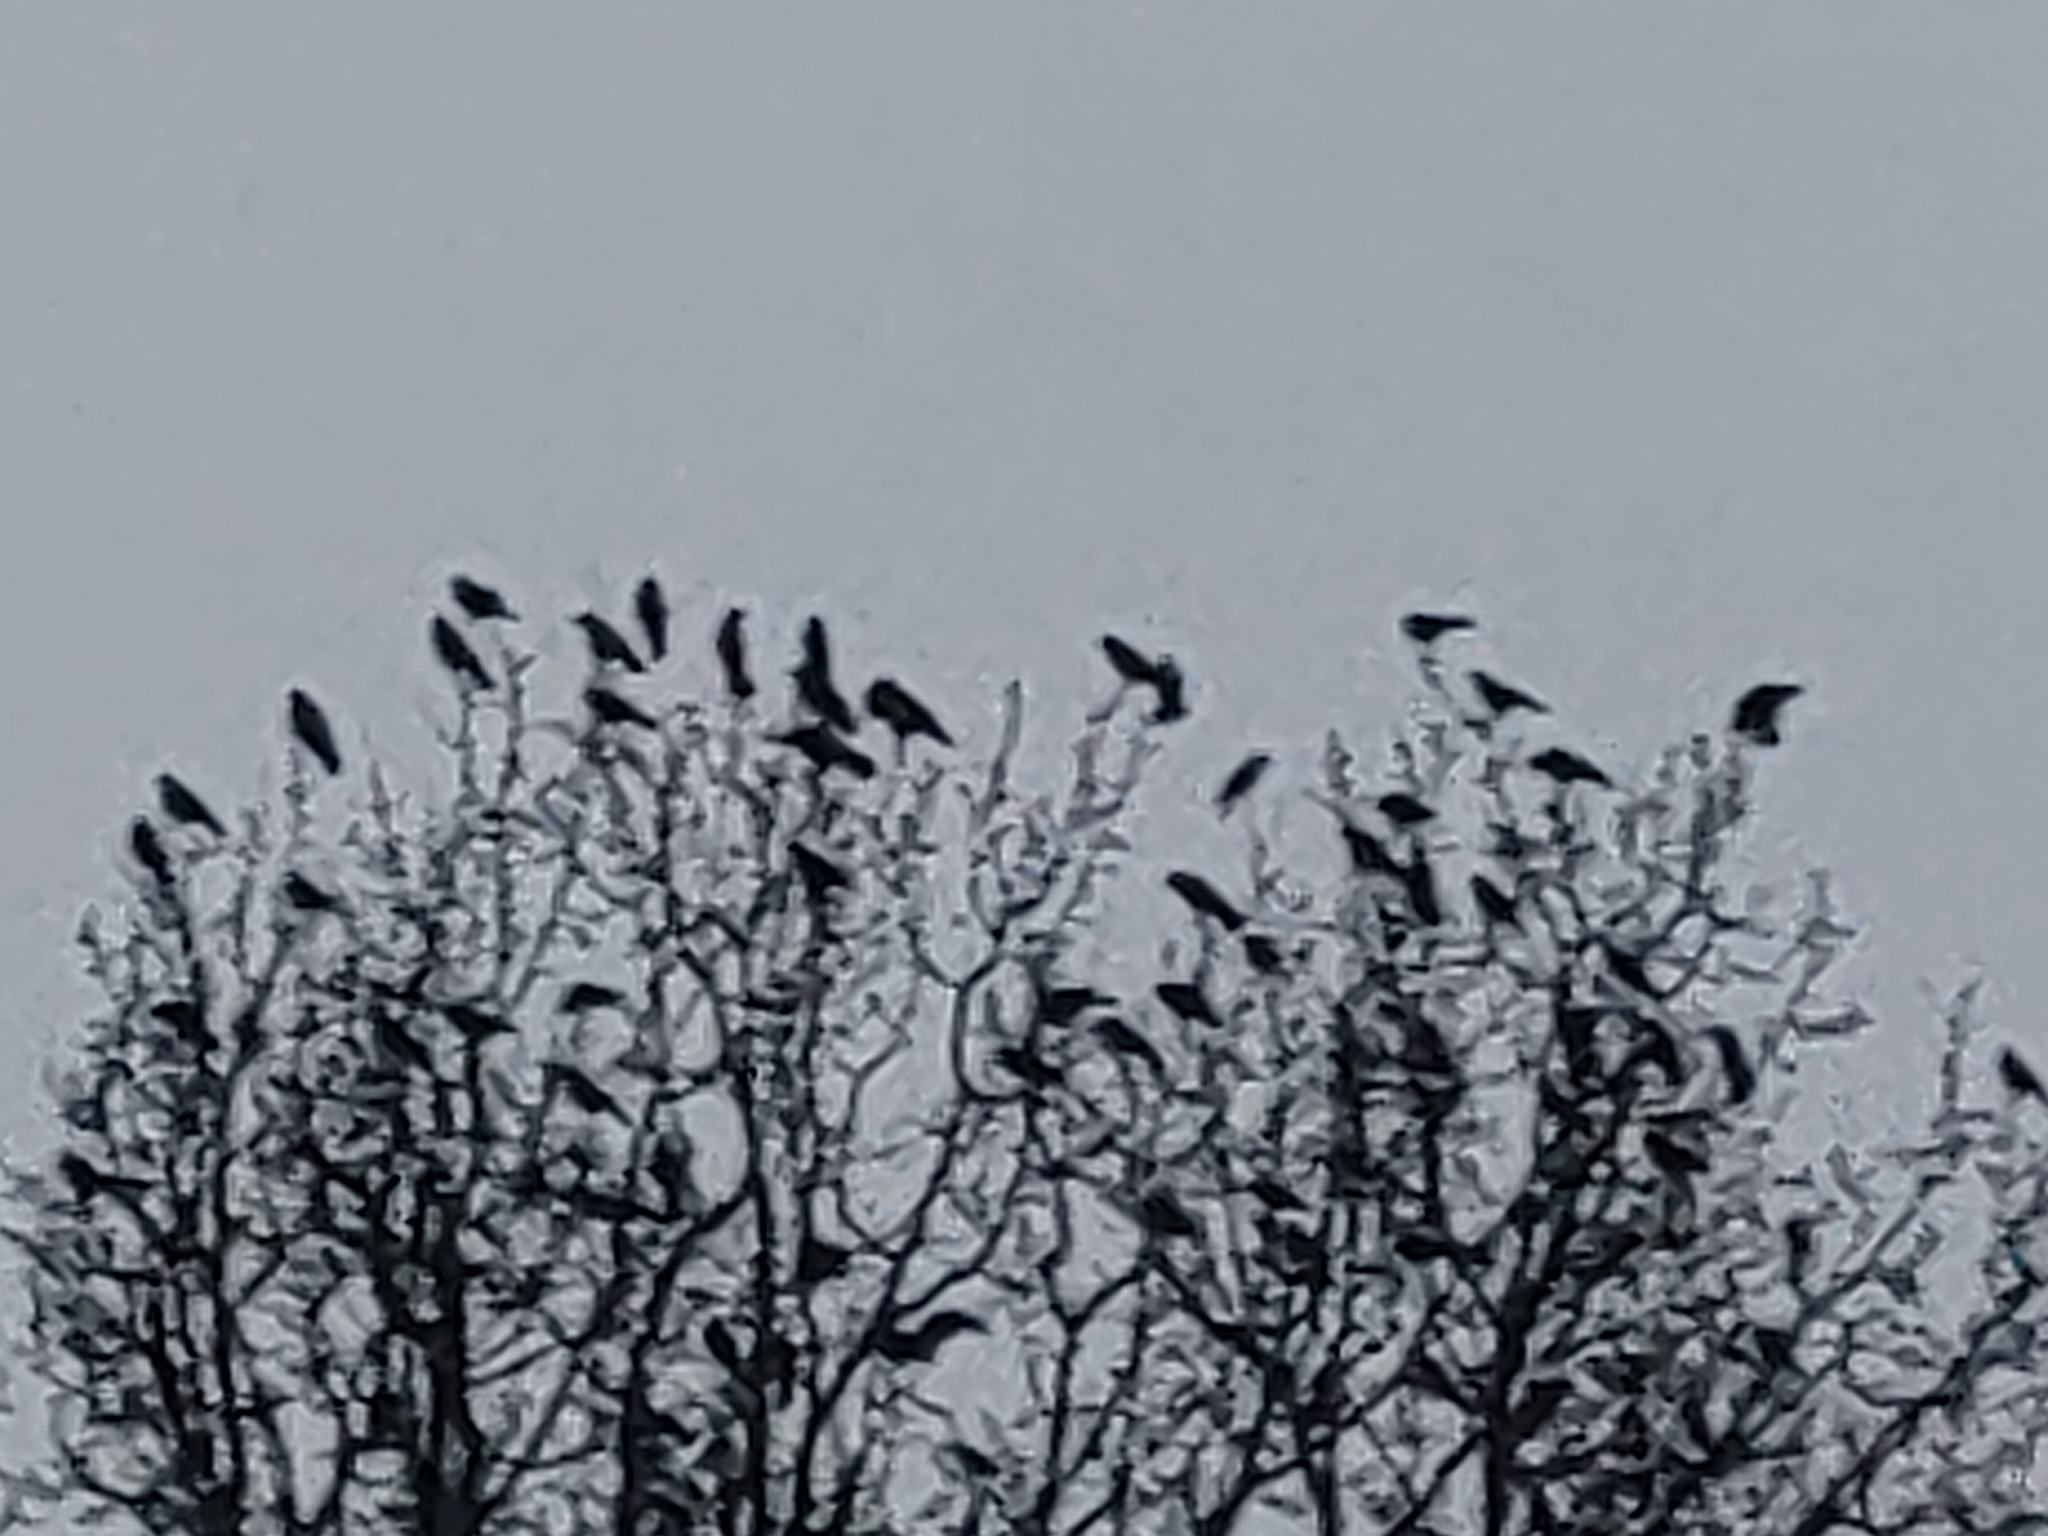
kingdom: Animalia
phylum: Chordata
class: Aves
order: Passeriformes
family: Corvidae
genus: Corvus
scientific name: Corvus frugilegus
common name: Rook
